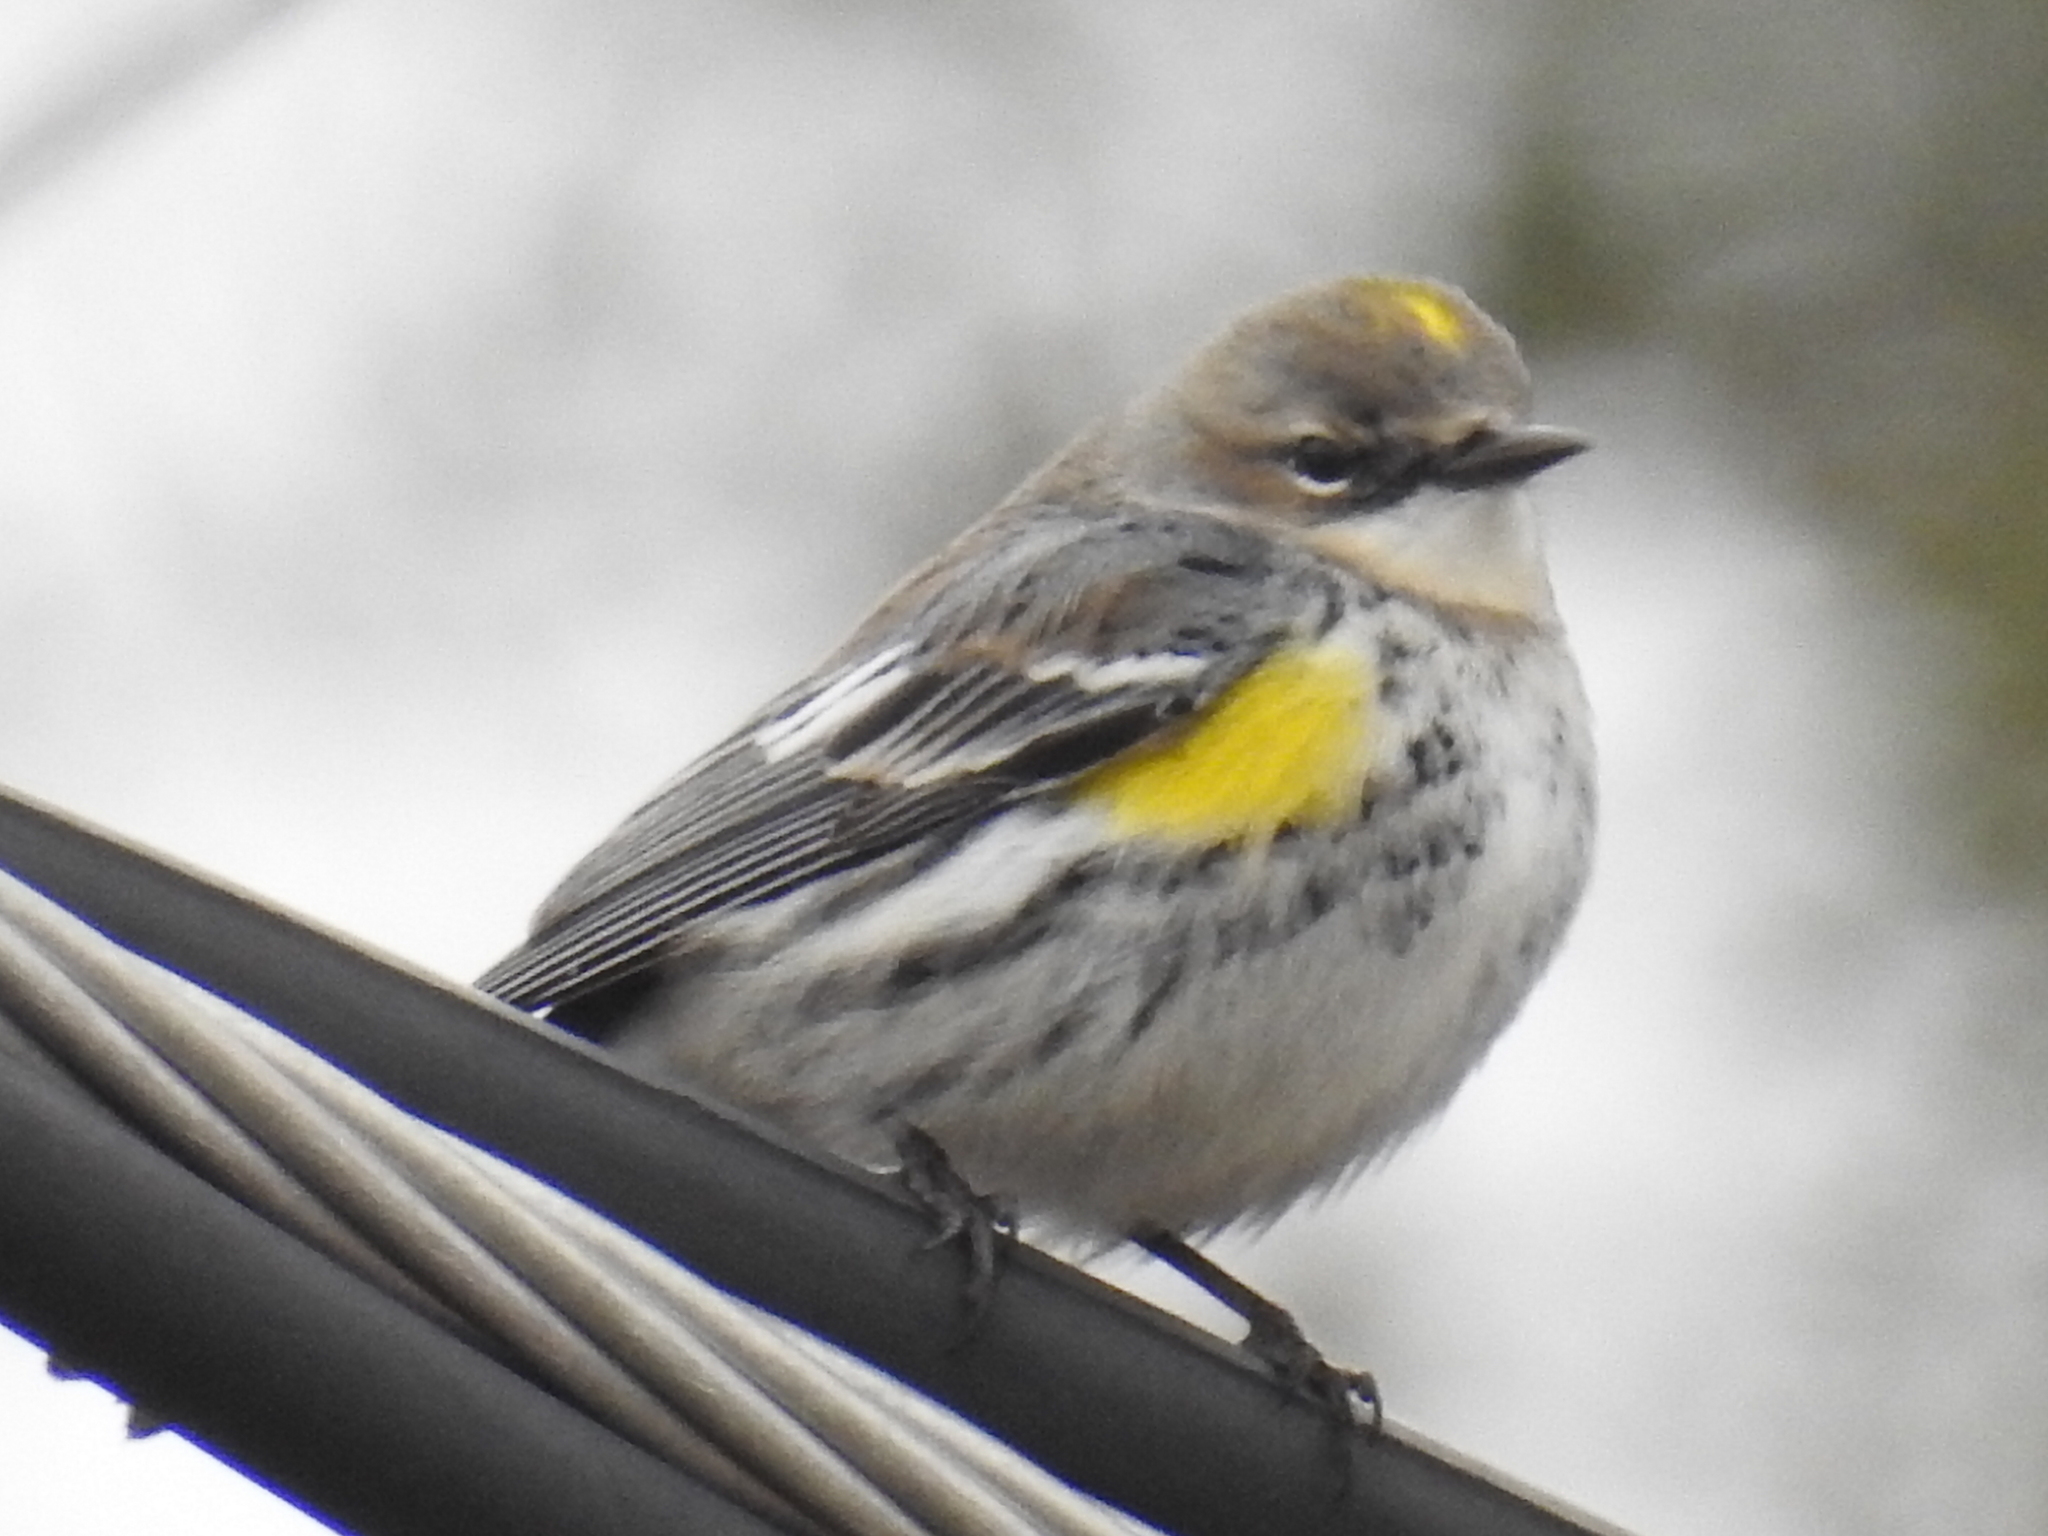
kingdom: Animalia
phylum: Chordata
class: Aves
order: Passeriformes
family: Parulidae
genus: Setophaga
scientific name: Setophaga coronata
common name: Myrtle warbler
